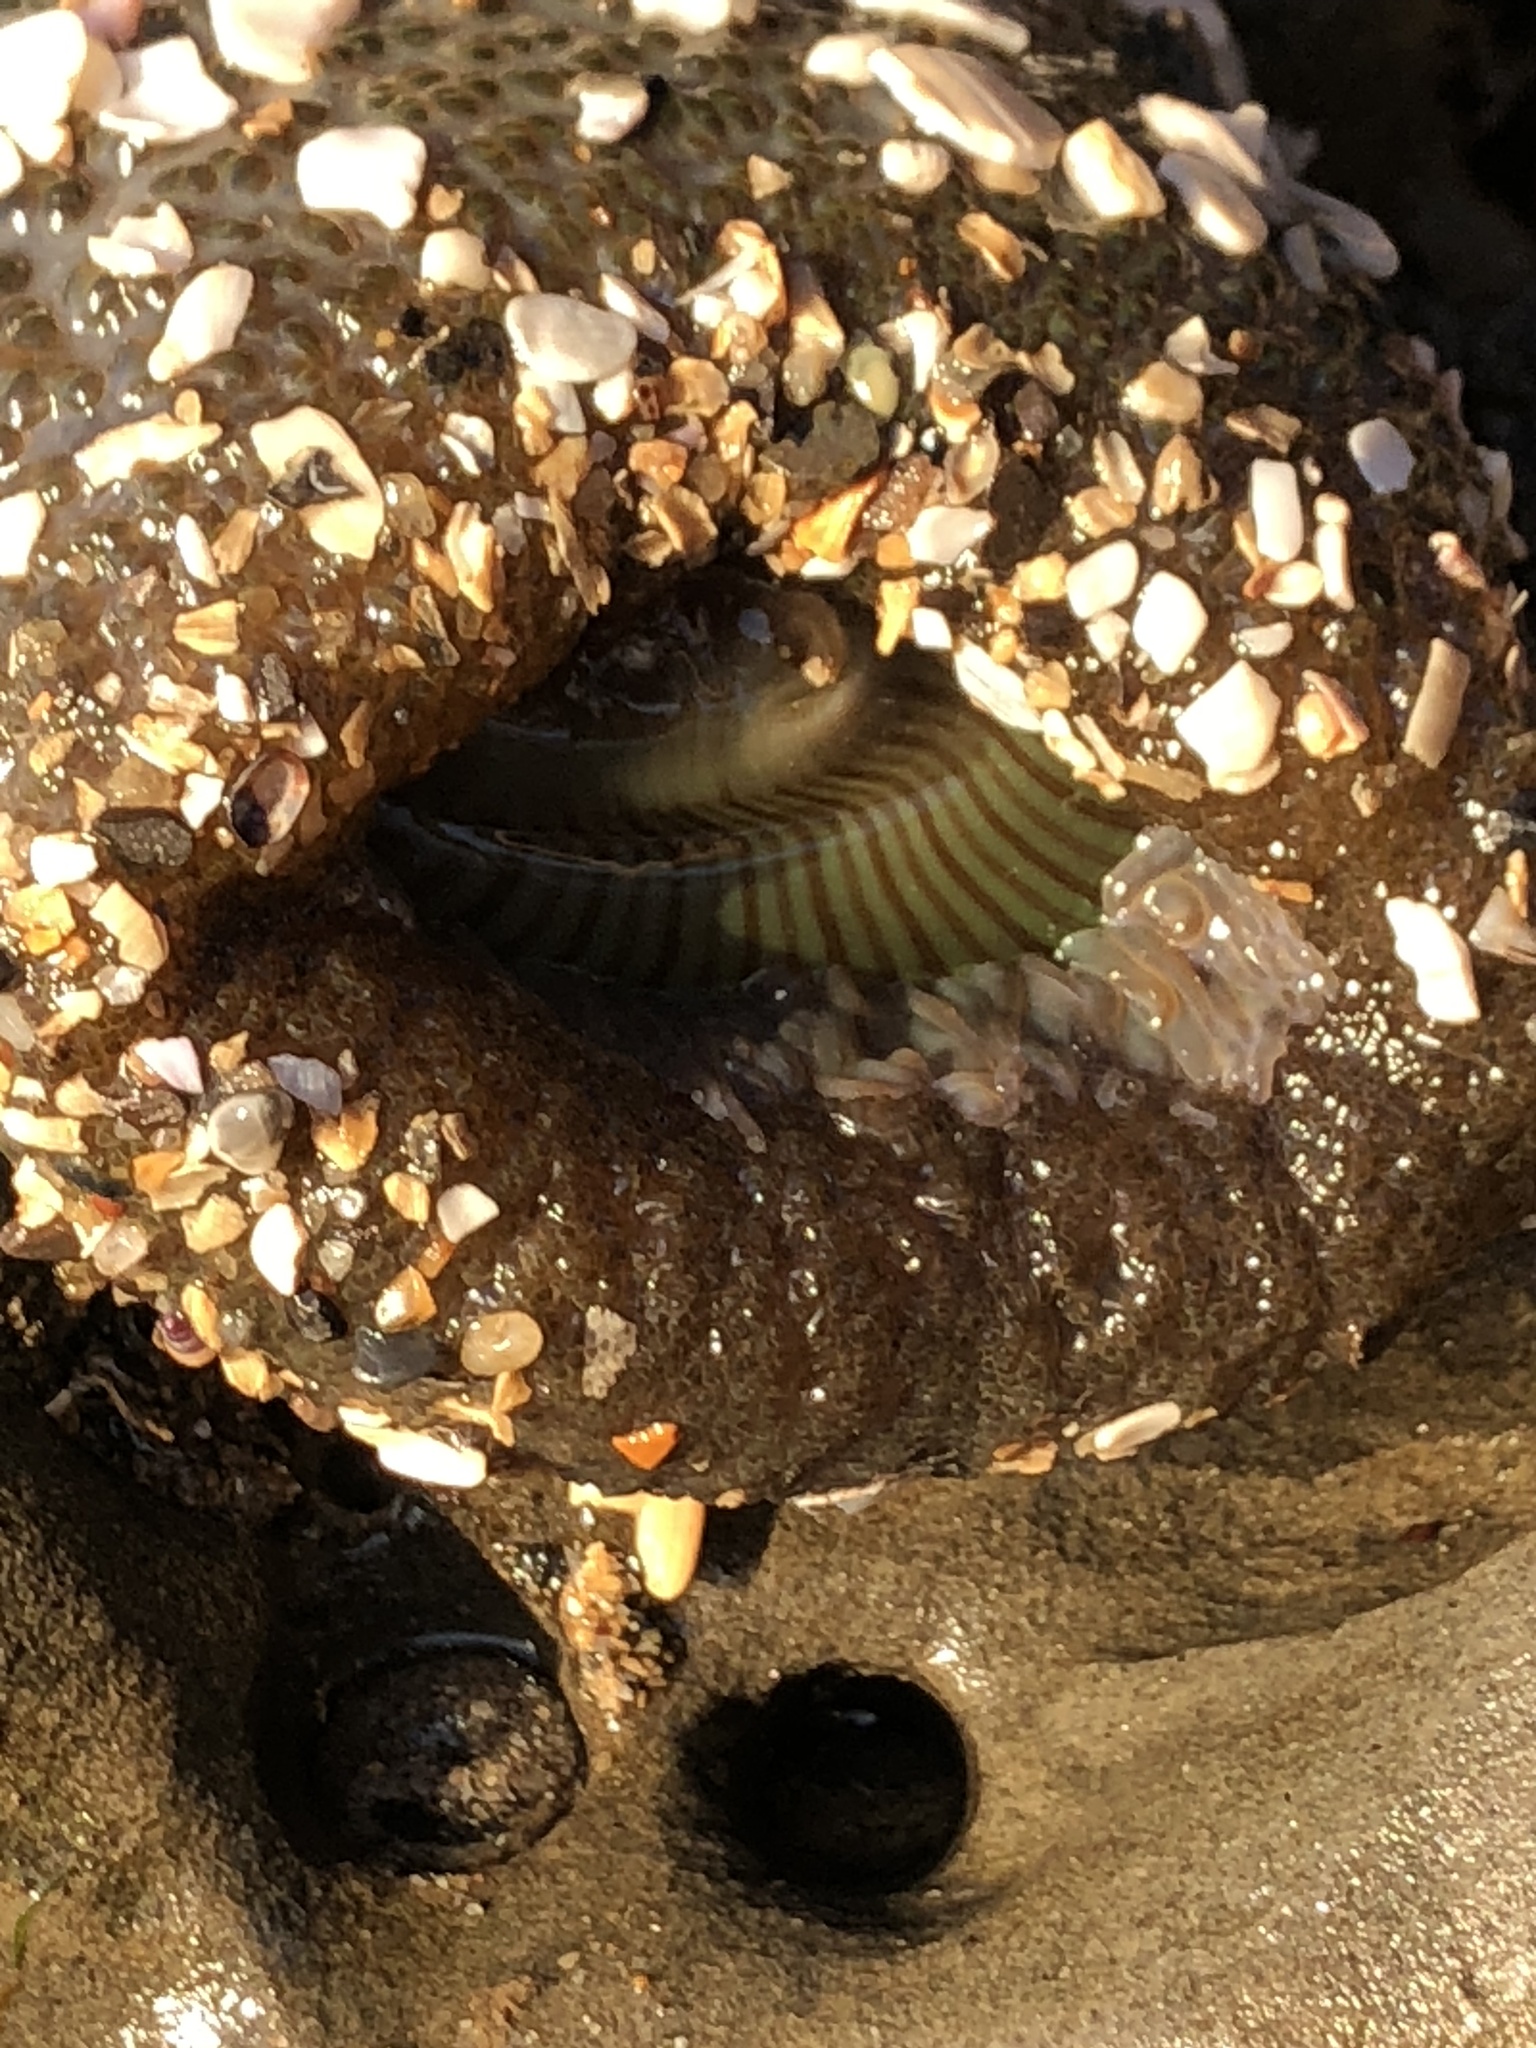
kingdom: Animalia
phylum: Cnidaria
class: Anthozoa
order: Actiniaria
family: Actiniidae
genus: Anthopleura
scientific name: Anthopleura sola
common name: Sun anemone
